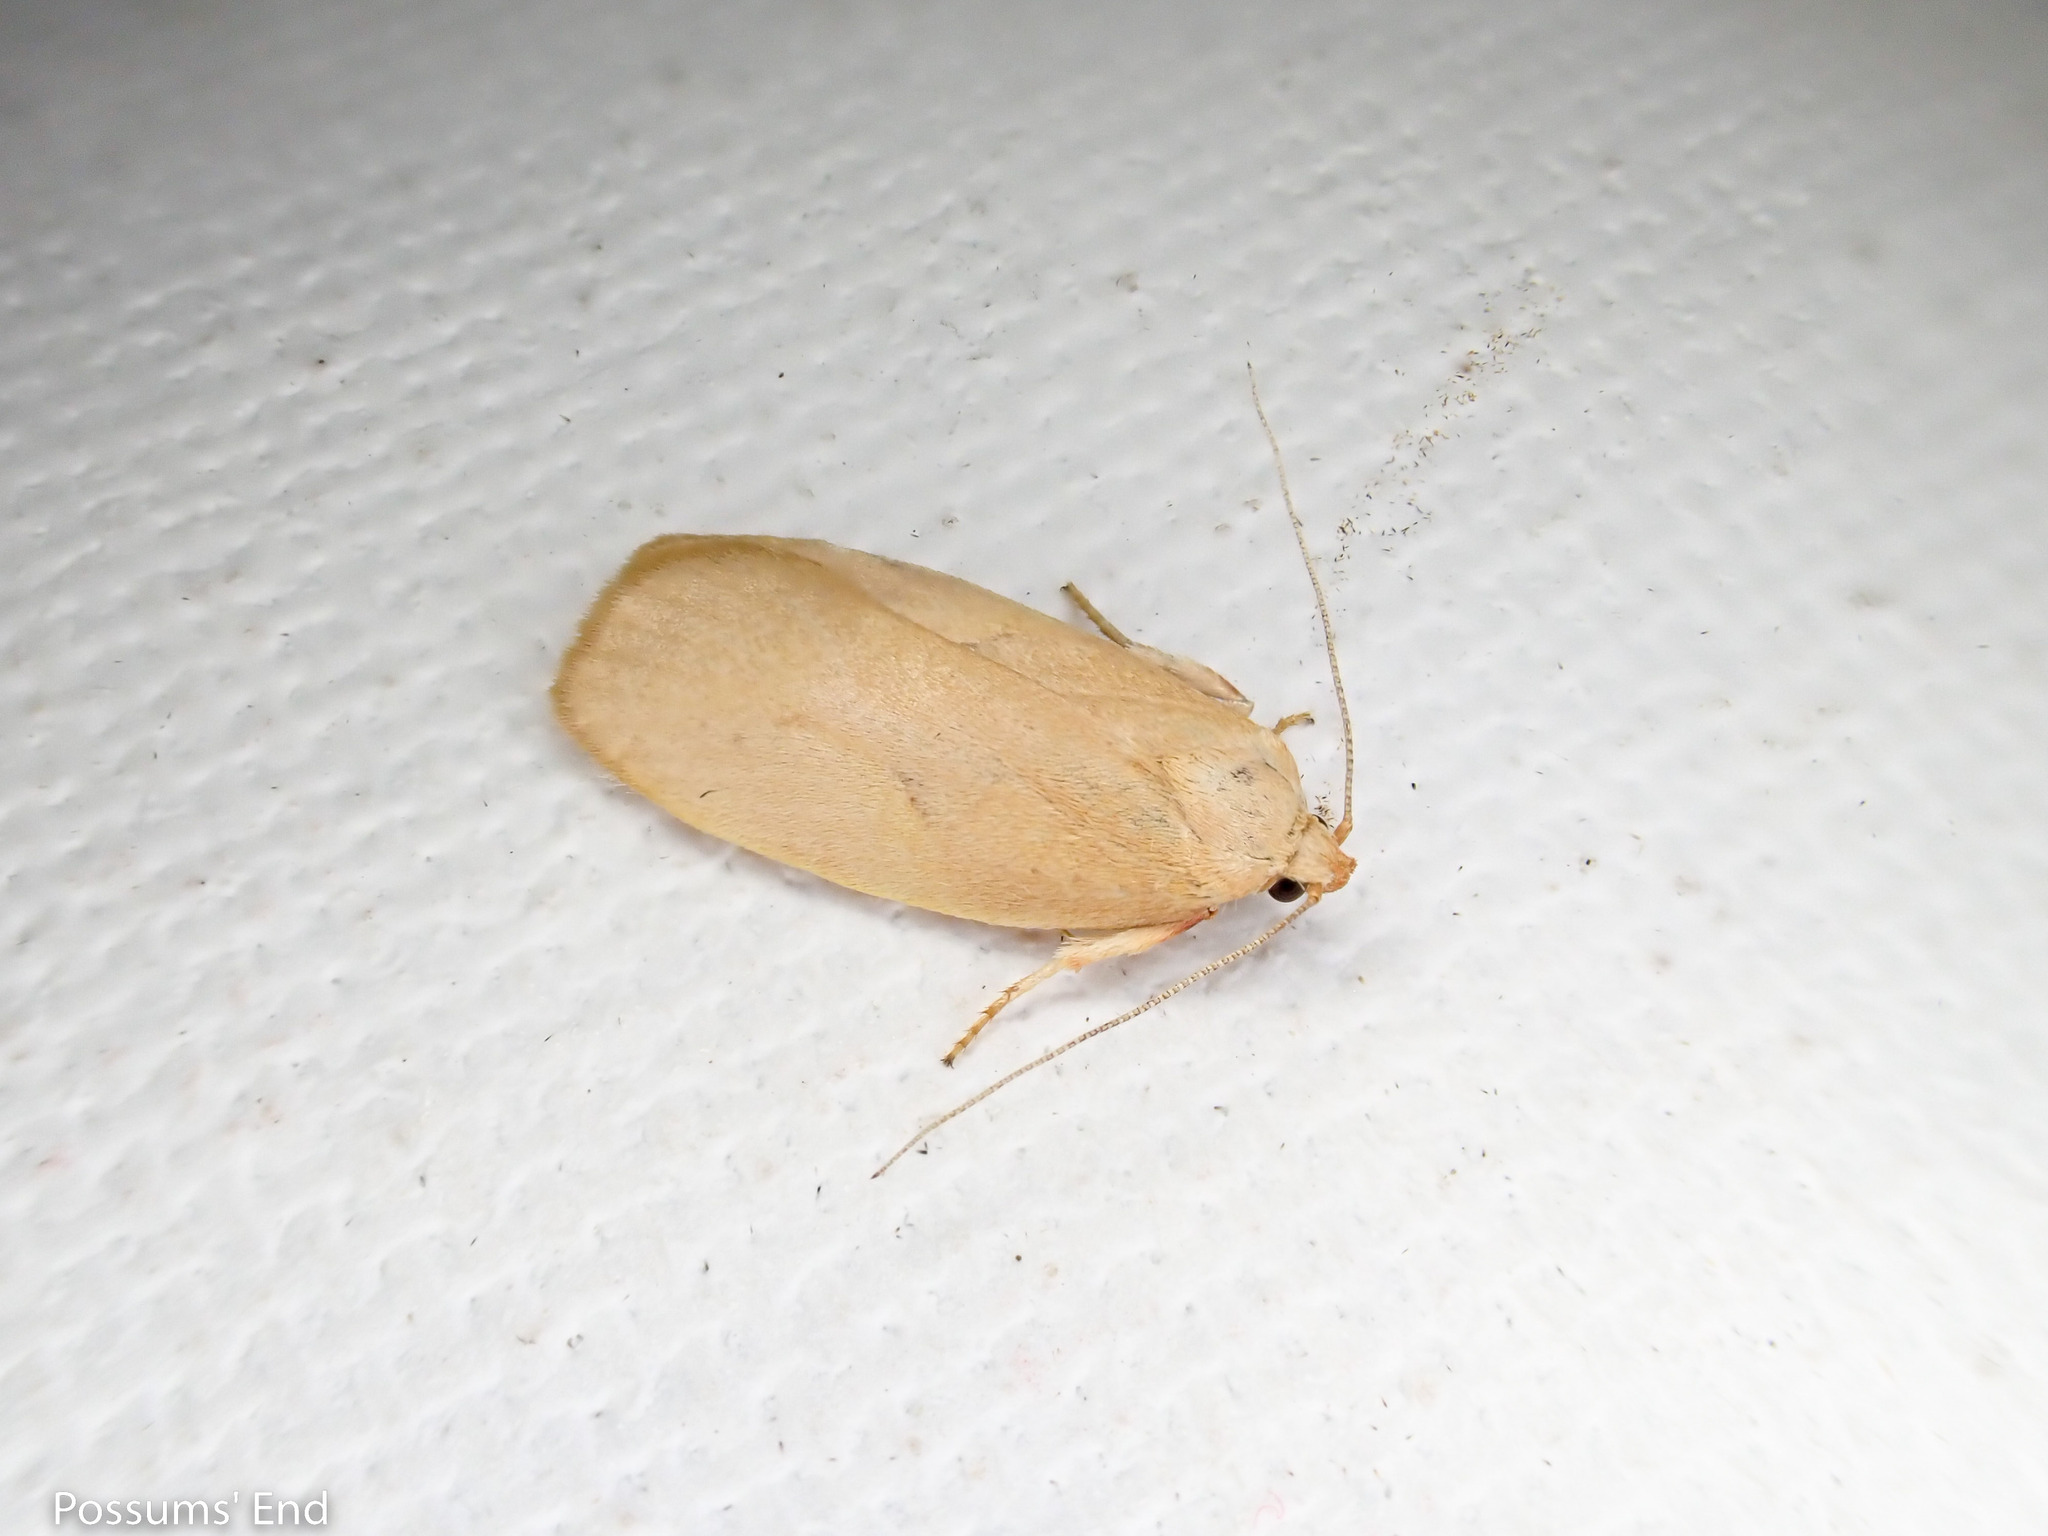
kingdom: Animalia
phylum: Arthropoda
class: Insecta
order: Lepidoptera
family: Oecophoridae
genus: Proteodes
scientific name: Proteodes carnifex
